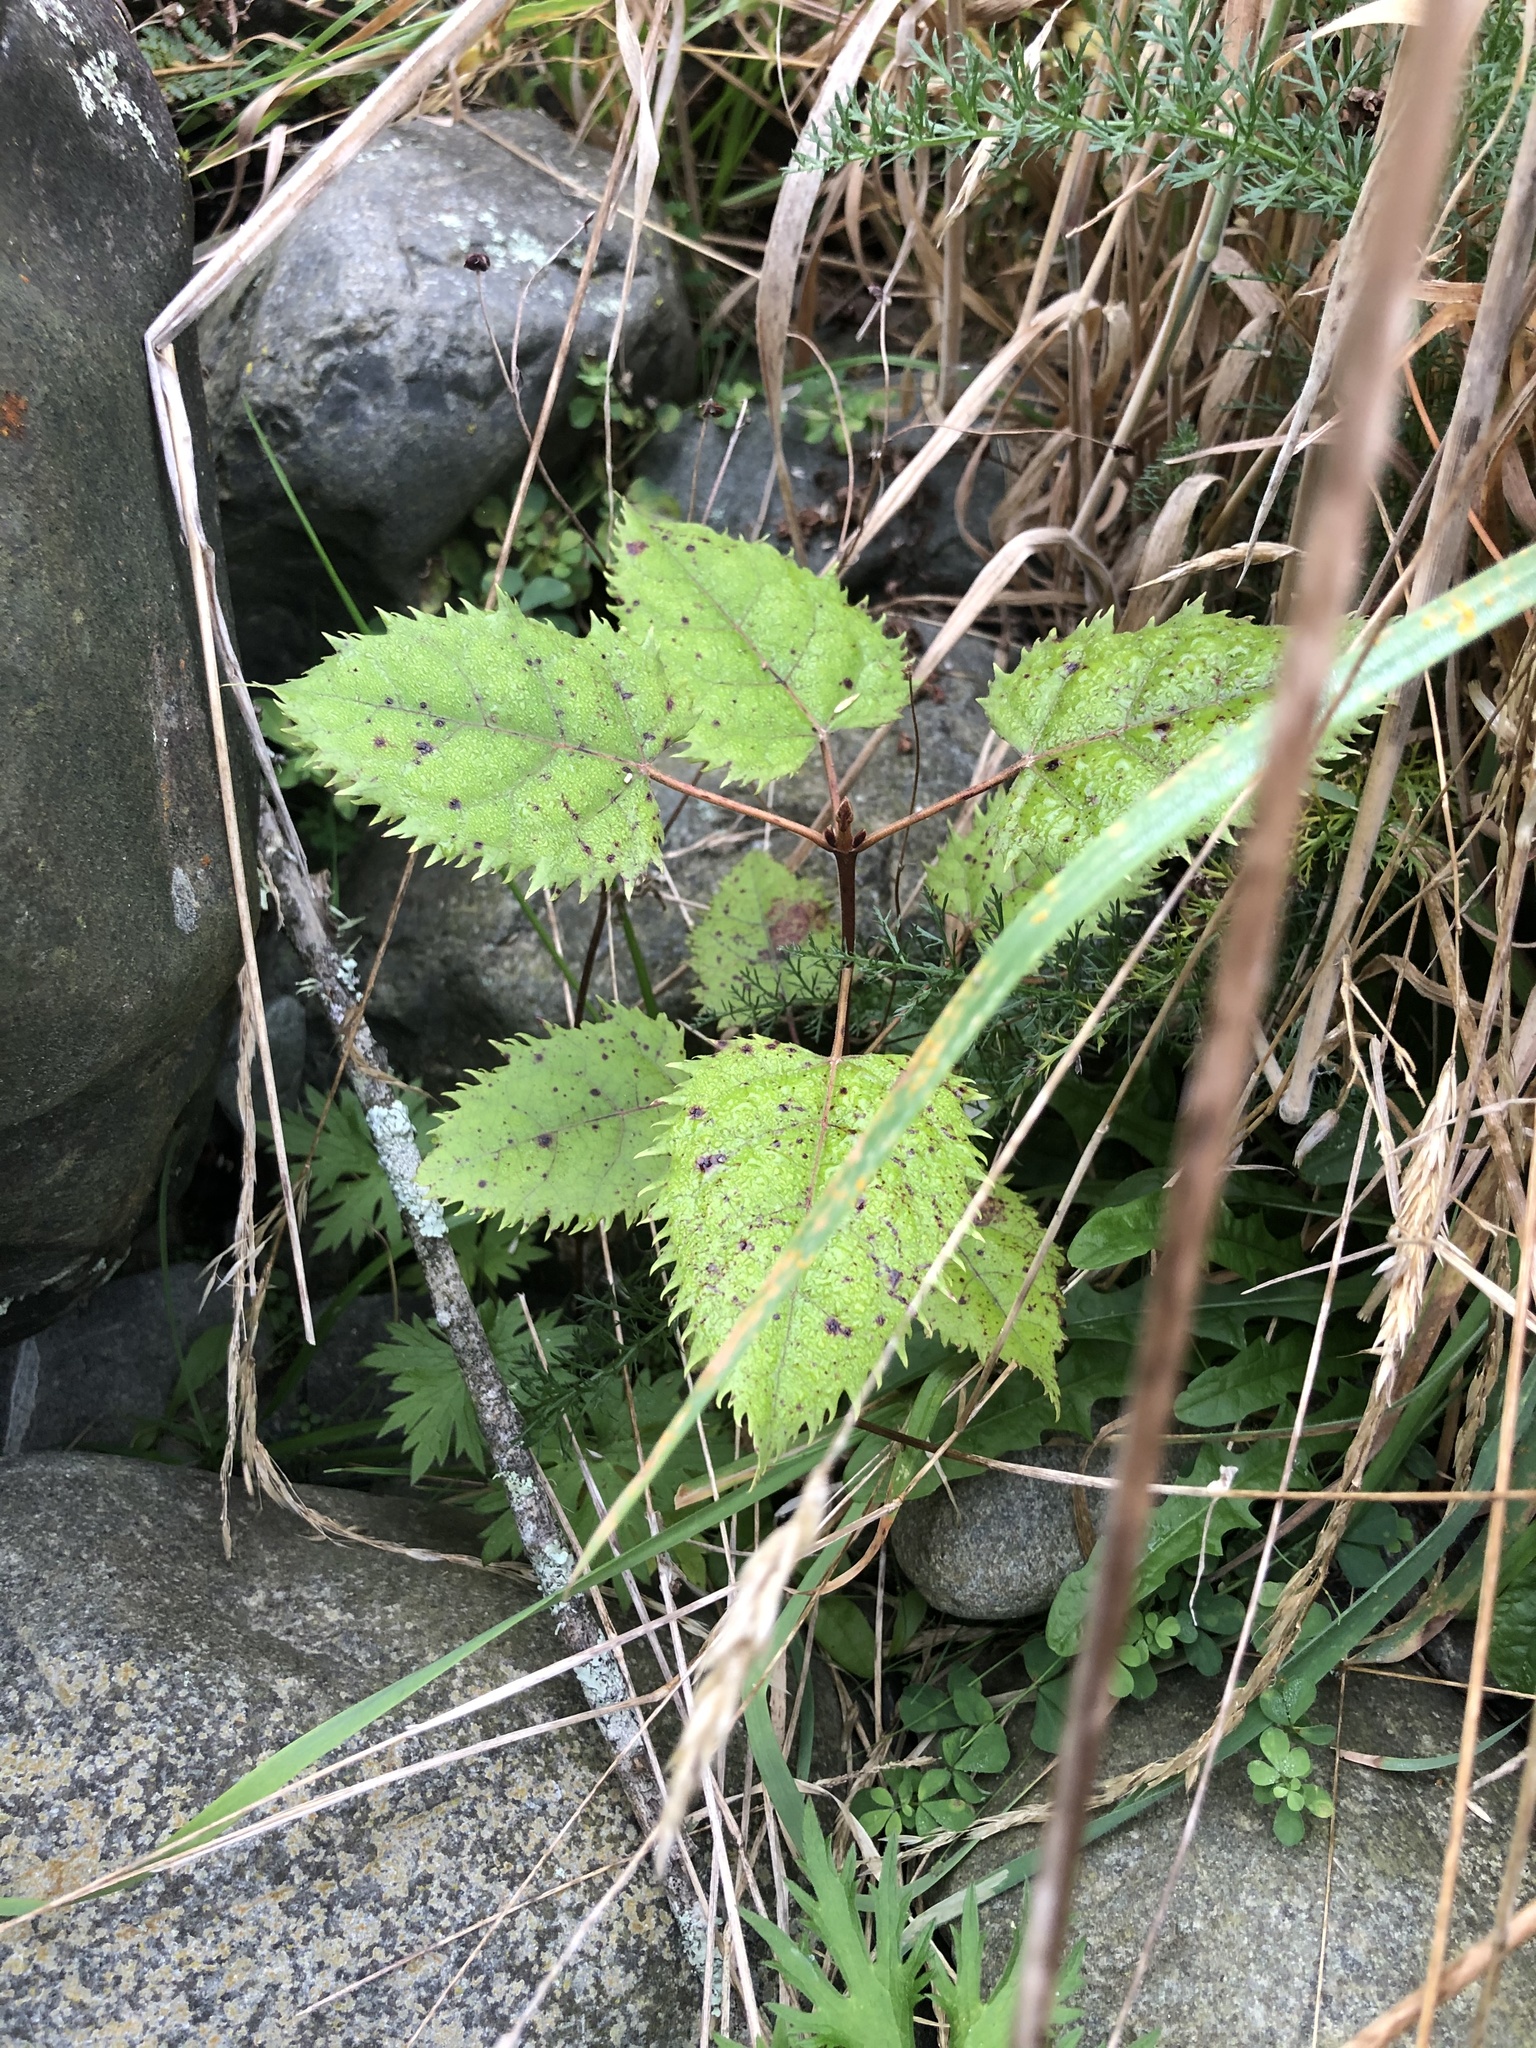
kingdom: Plantae
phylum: Tracheophyta
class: Magnoliopsida
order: Oxalidales
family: Elaeocarpaceae
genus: Aristotelia
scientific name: Aristotelia serrata
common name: New zealand wineberry
